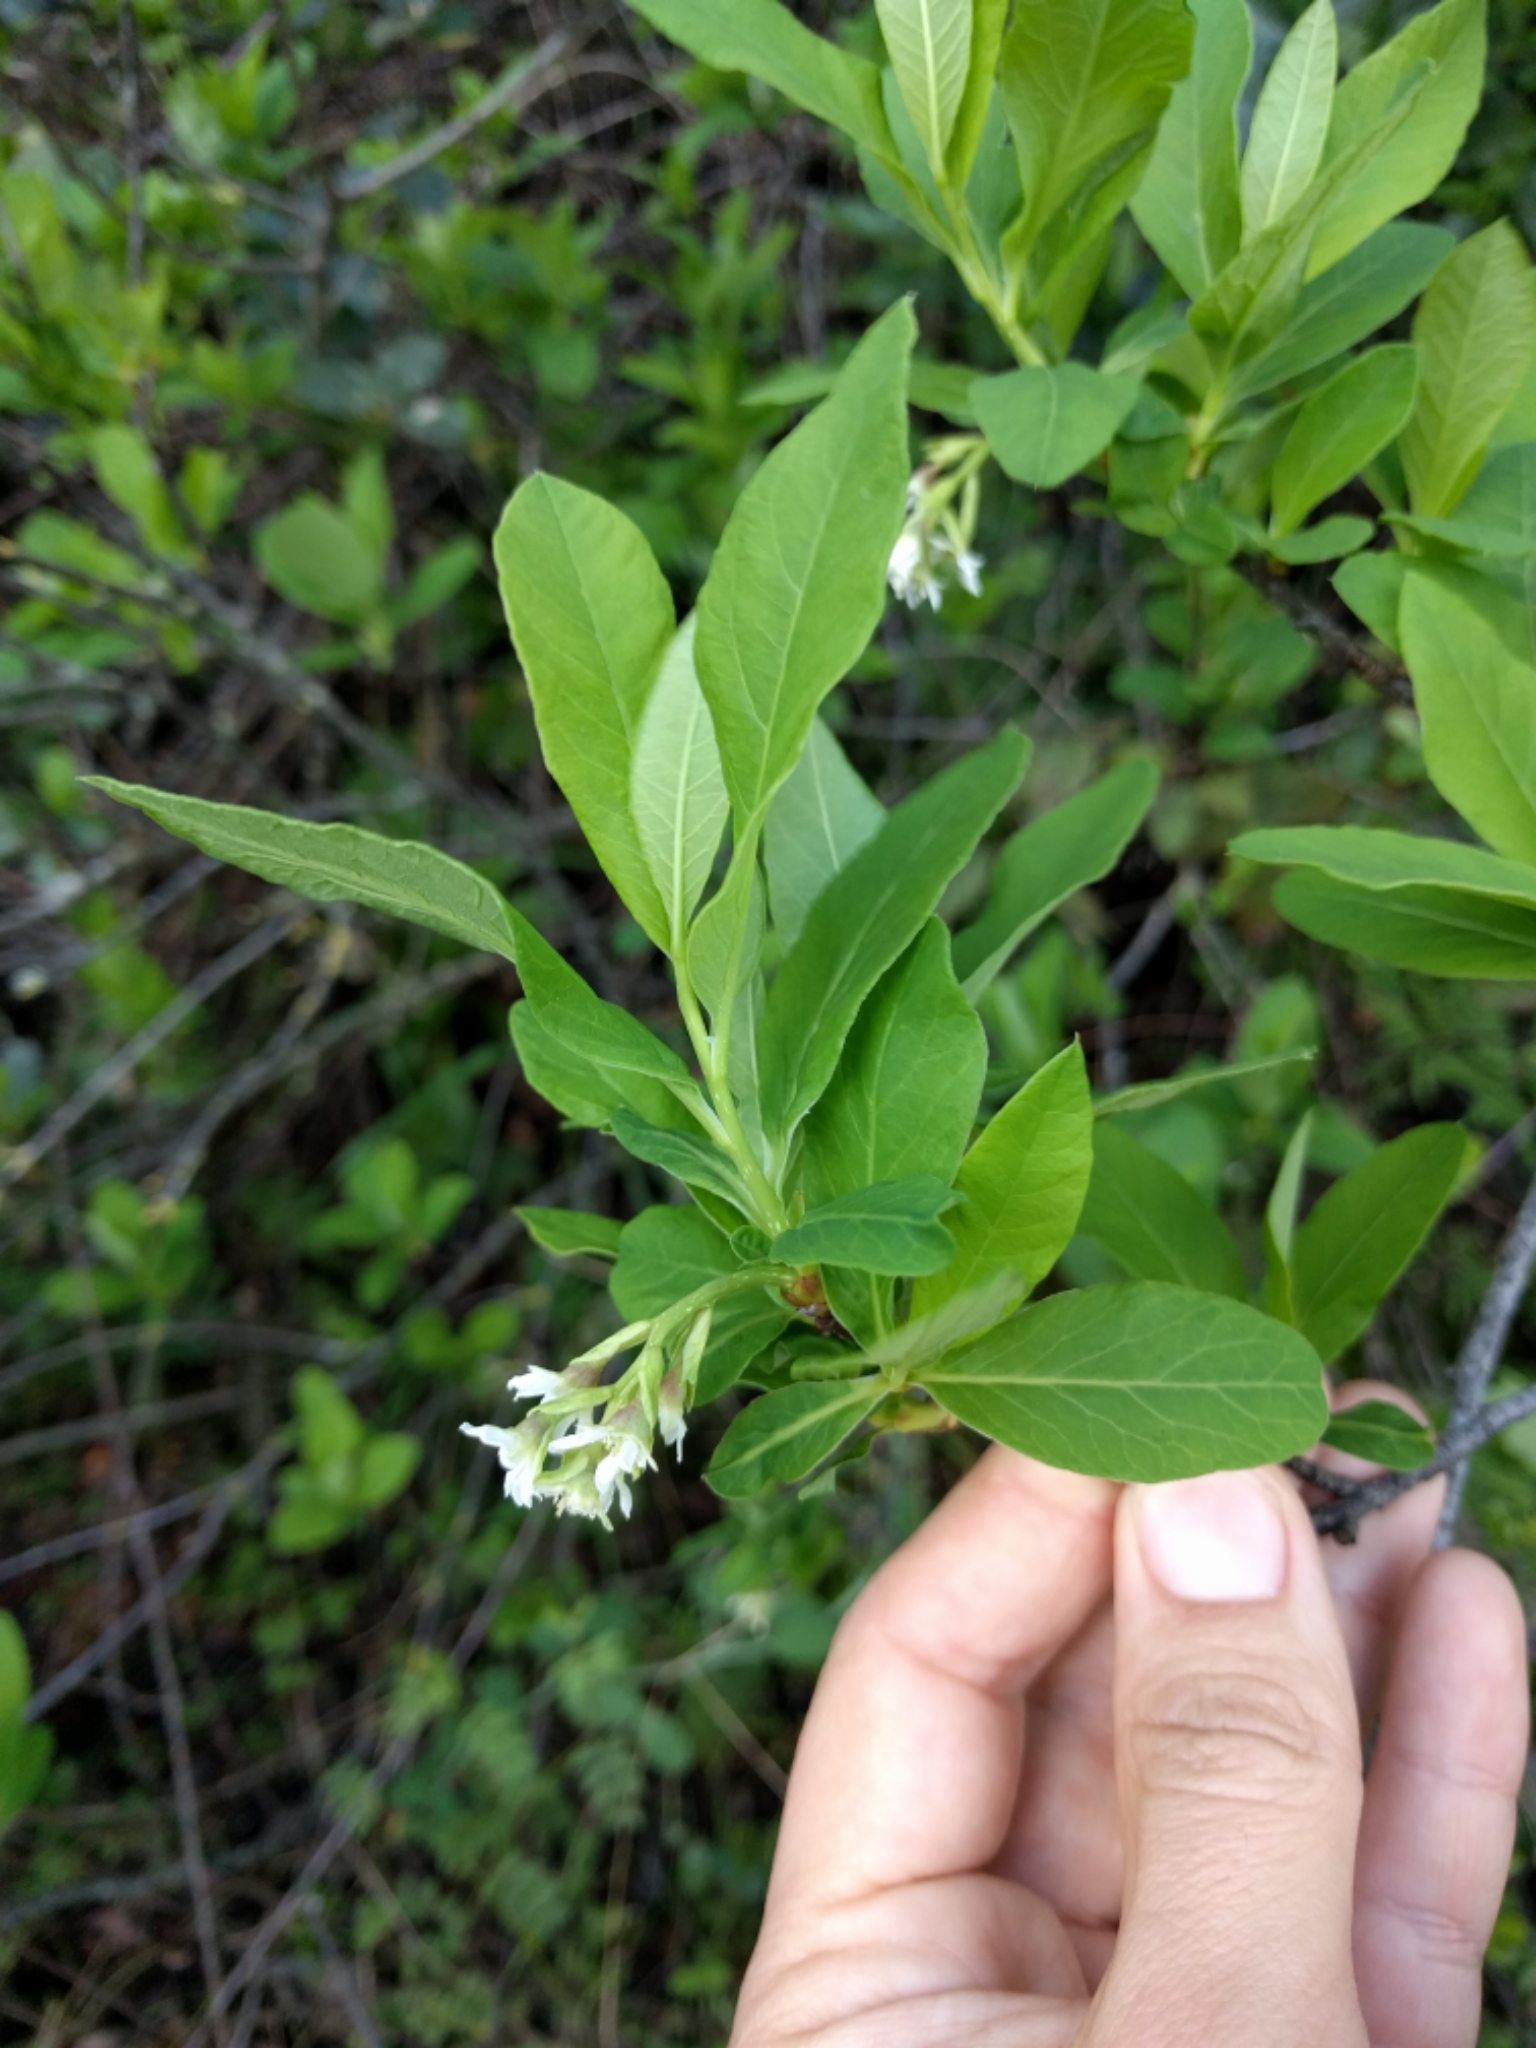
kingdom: Plantae
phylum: Tracheophyta
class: Magnoliopsida
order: Rosales
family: Rosaceae
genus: Oemleria
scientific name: Oemleria cerasiformis
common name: Osoberry
